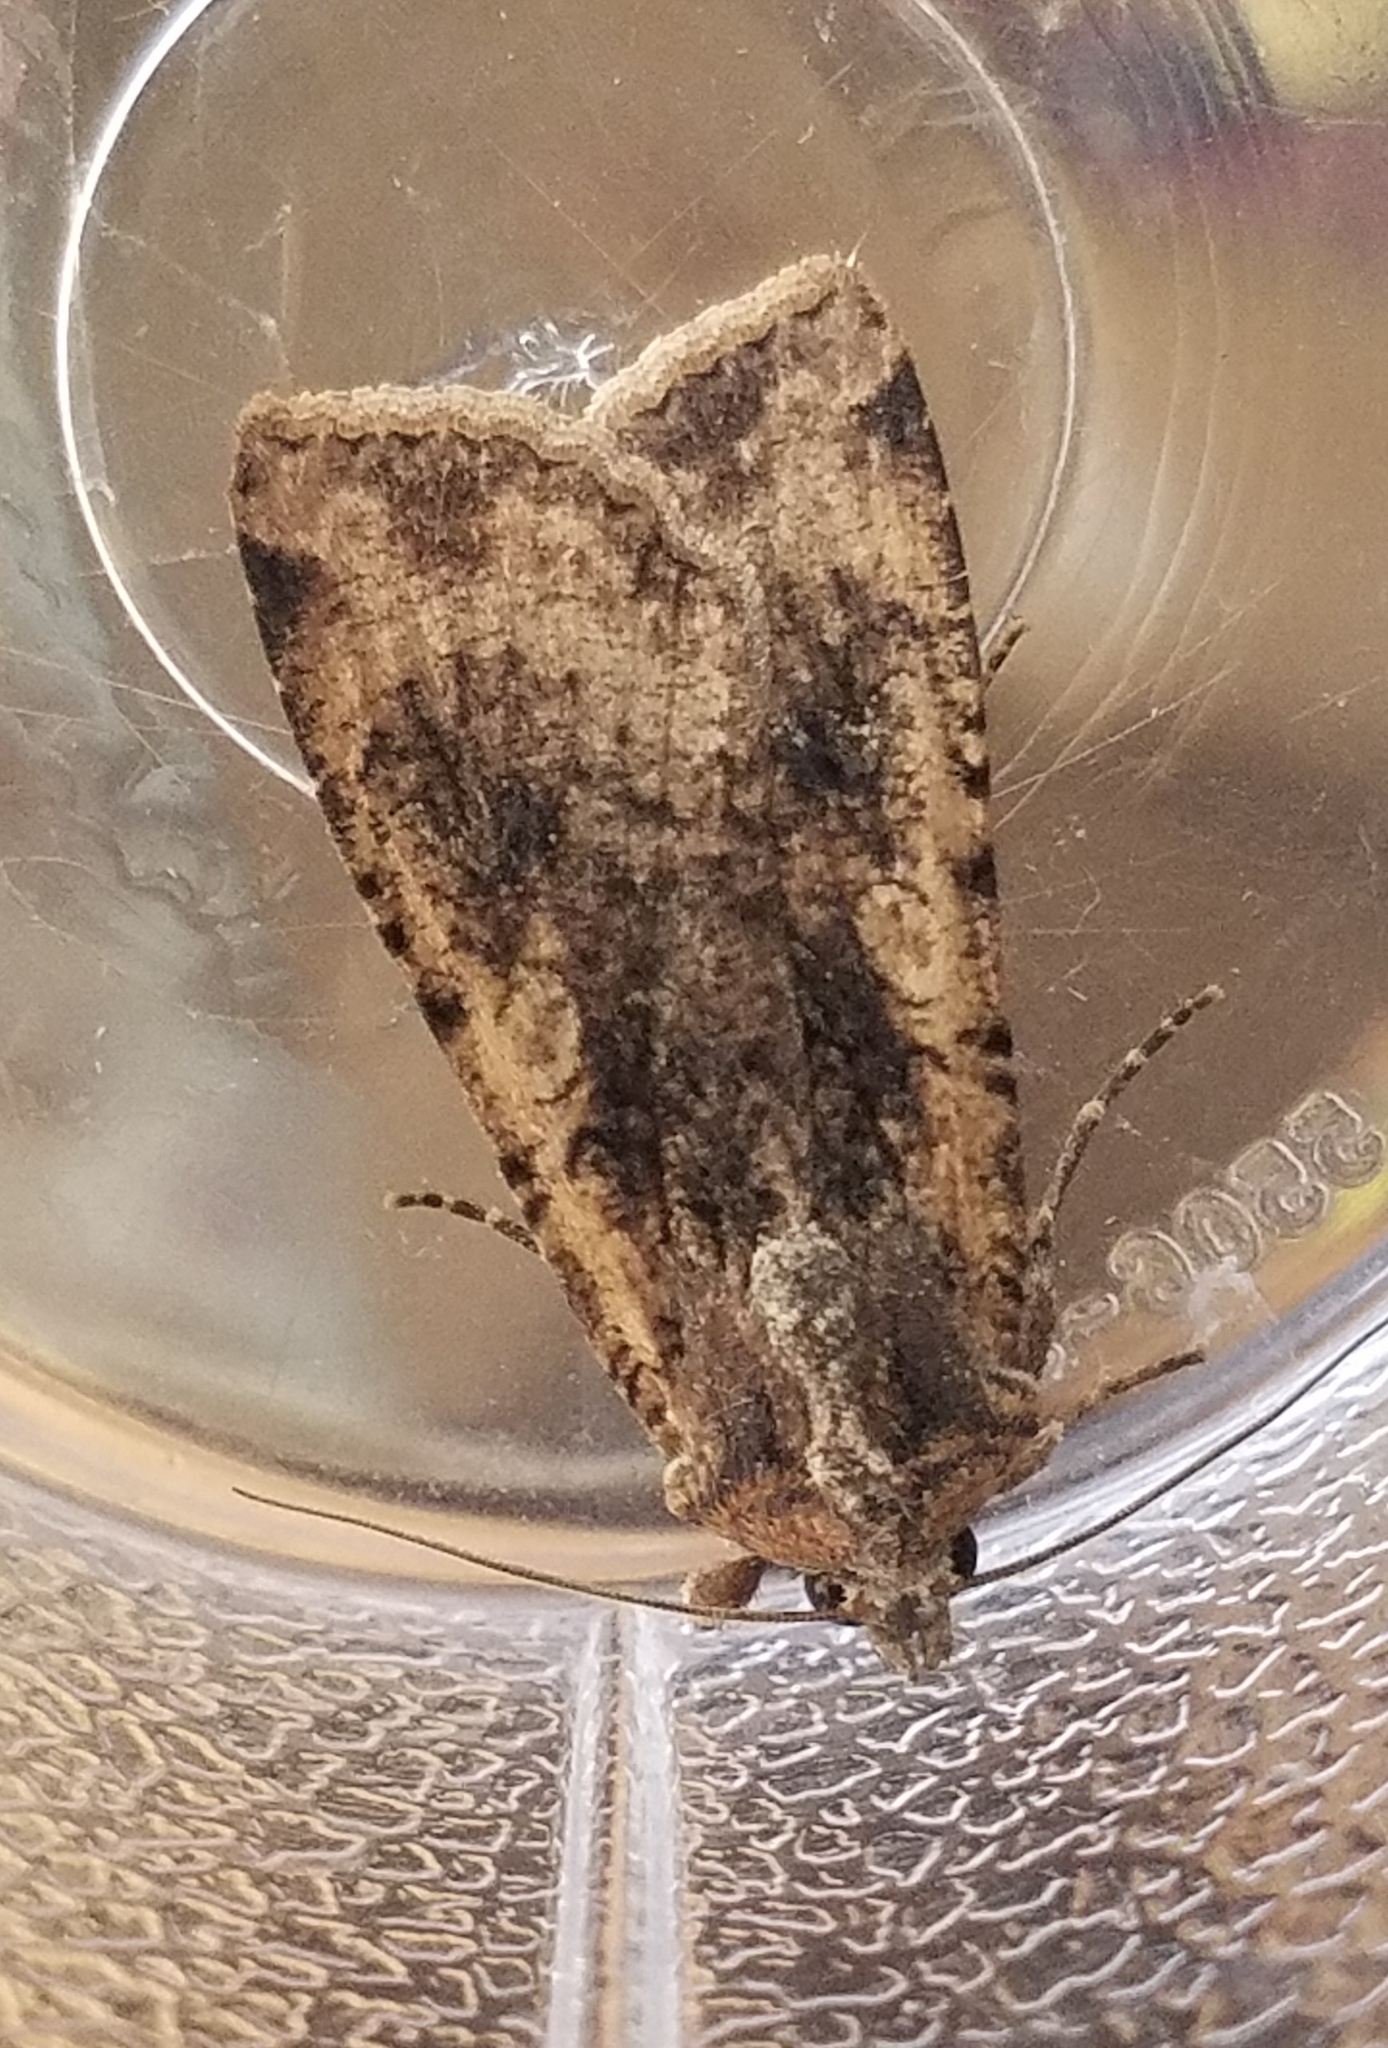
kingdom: Animalia
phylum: Arthropoda
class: Insecta
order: Lepidoptera
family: Noctuidae
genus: Peridroma
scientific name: Peridroma saucia
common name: Pearly underwing
